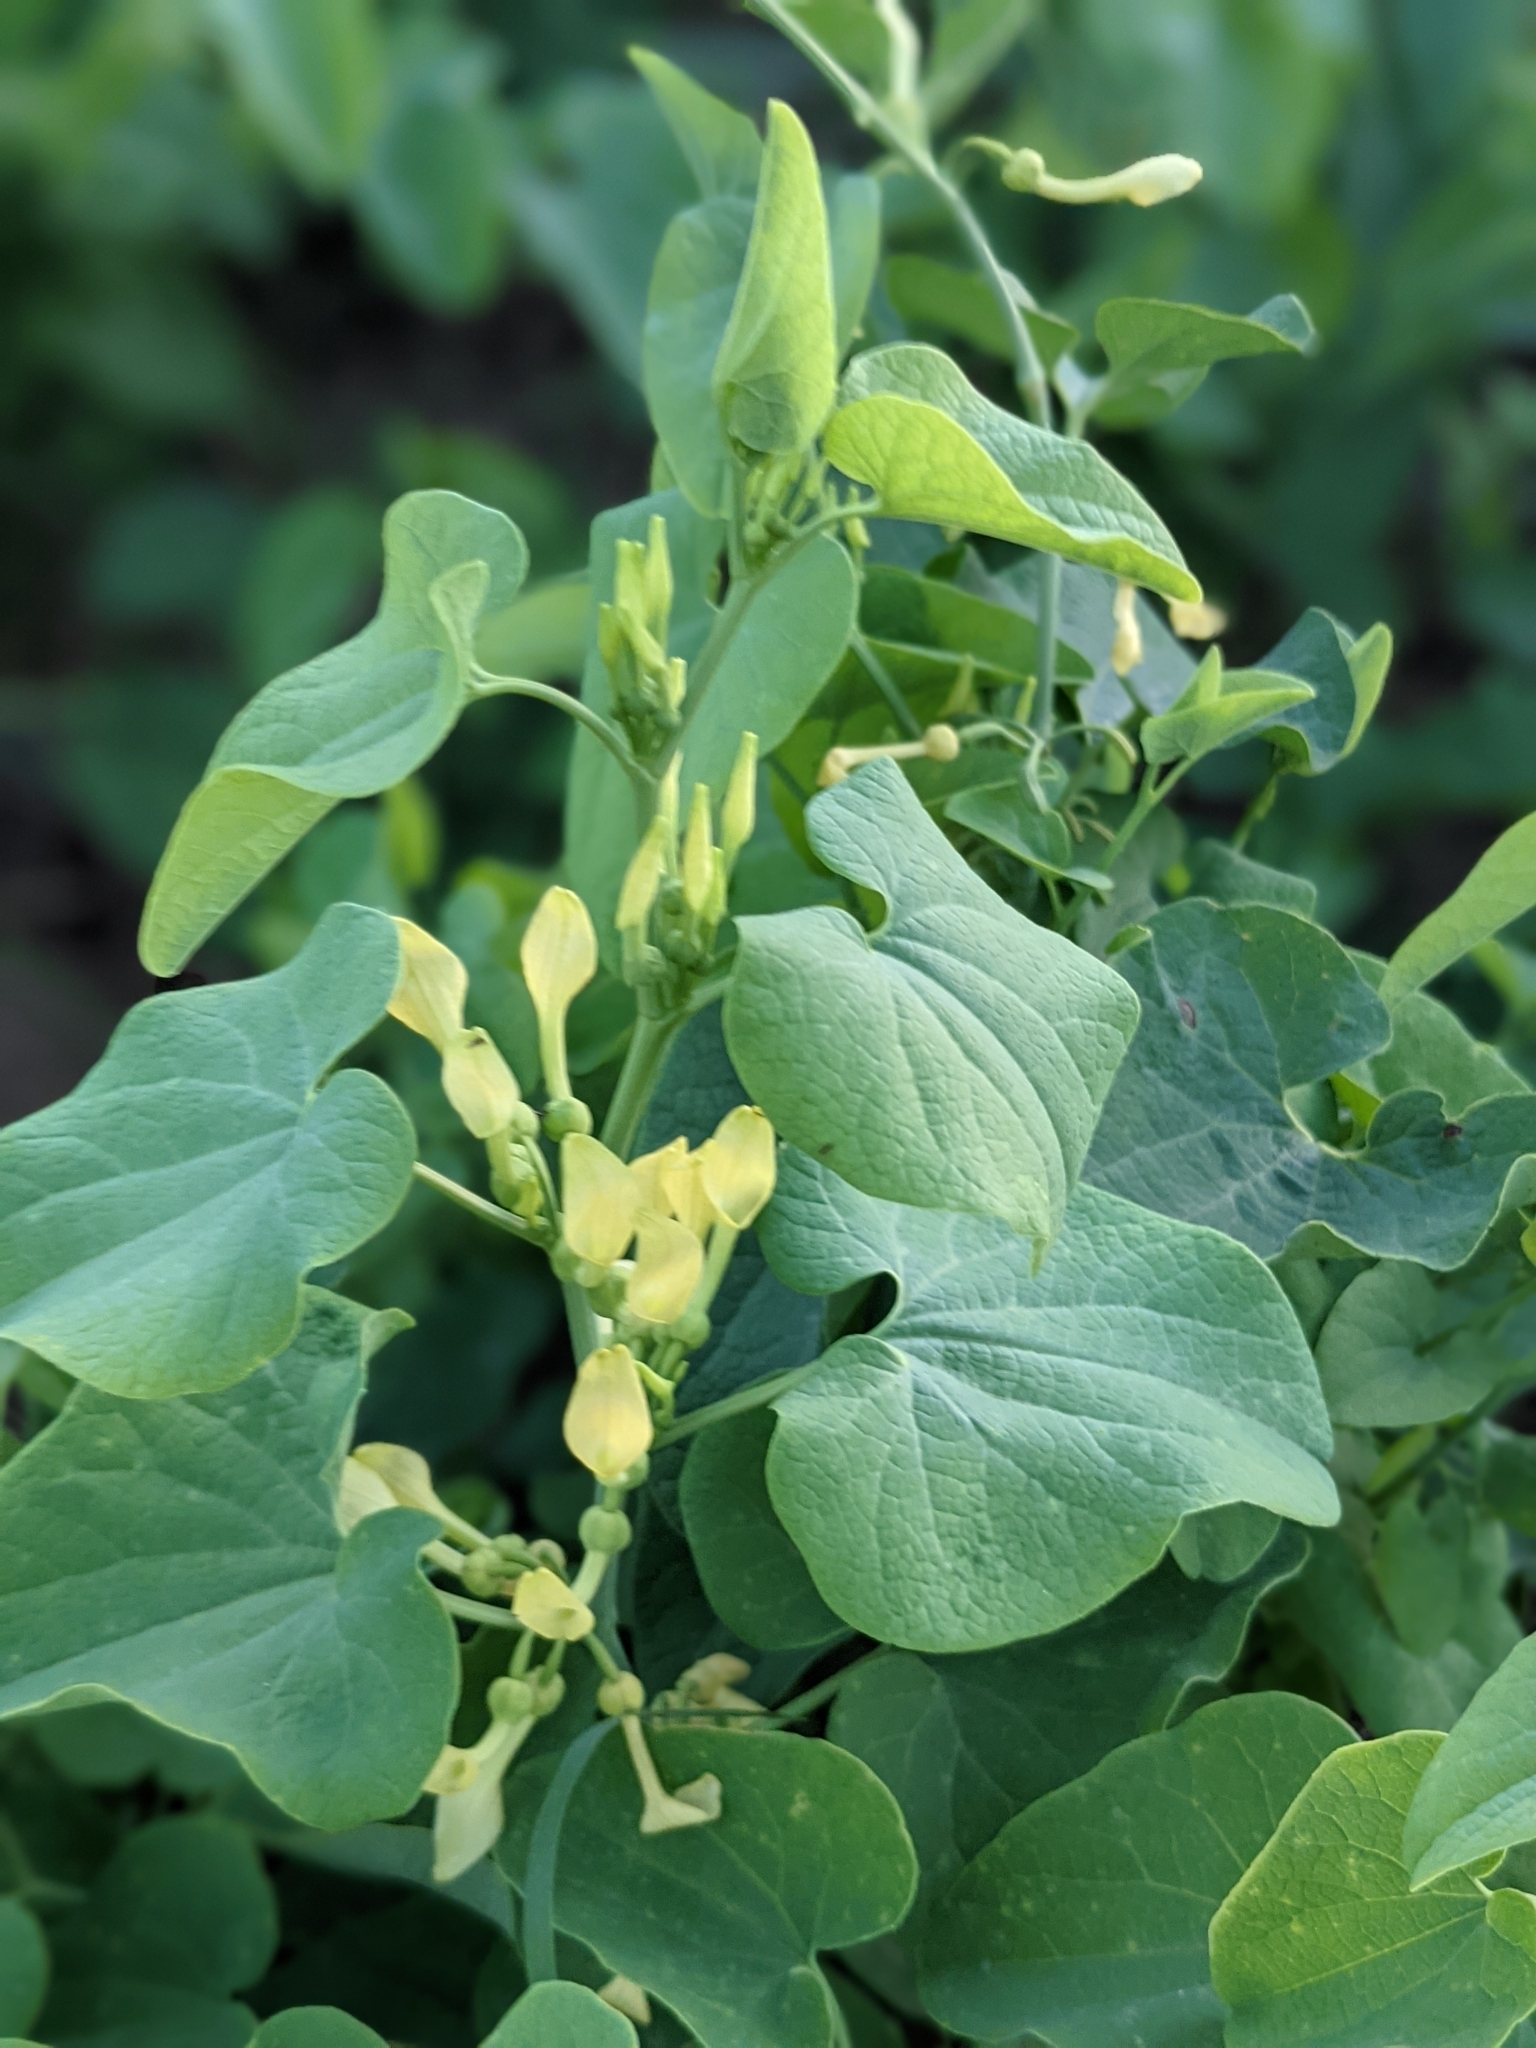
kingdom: Plantae
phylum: Tracheophyta
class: Magnoliopsida
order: Piperales
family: Aristolochiaceae
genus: Aristolochia
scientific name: Aristolochia clematitis
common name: Birthwort
